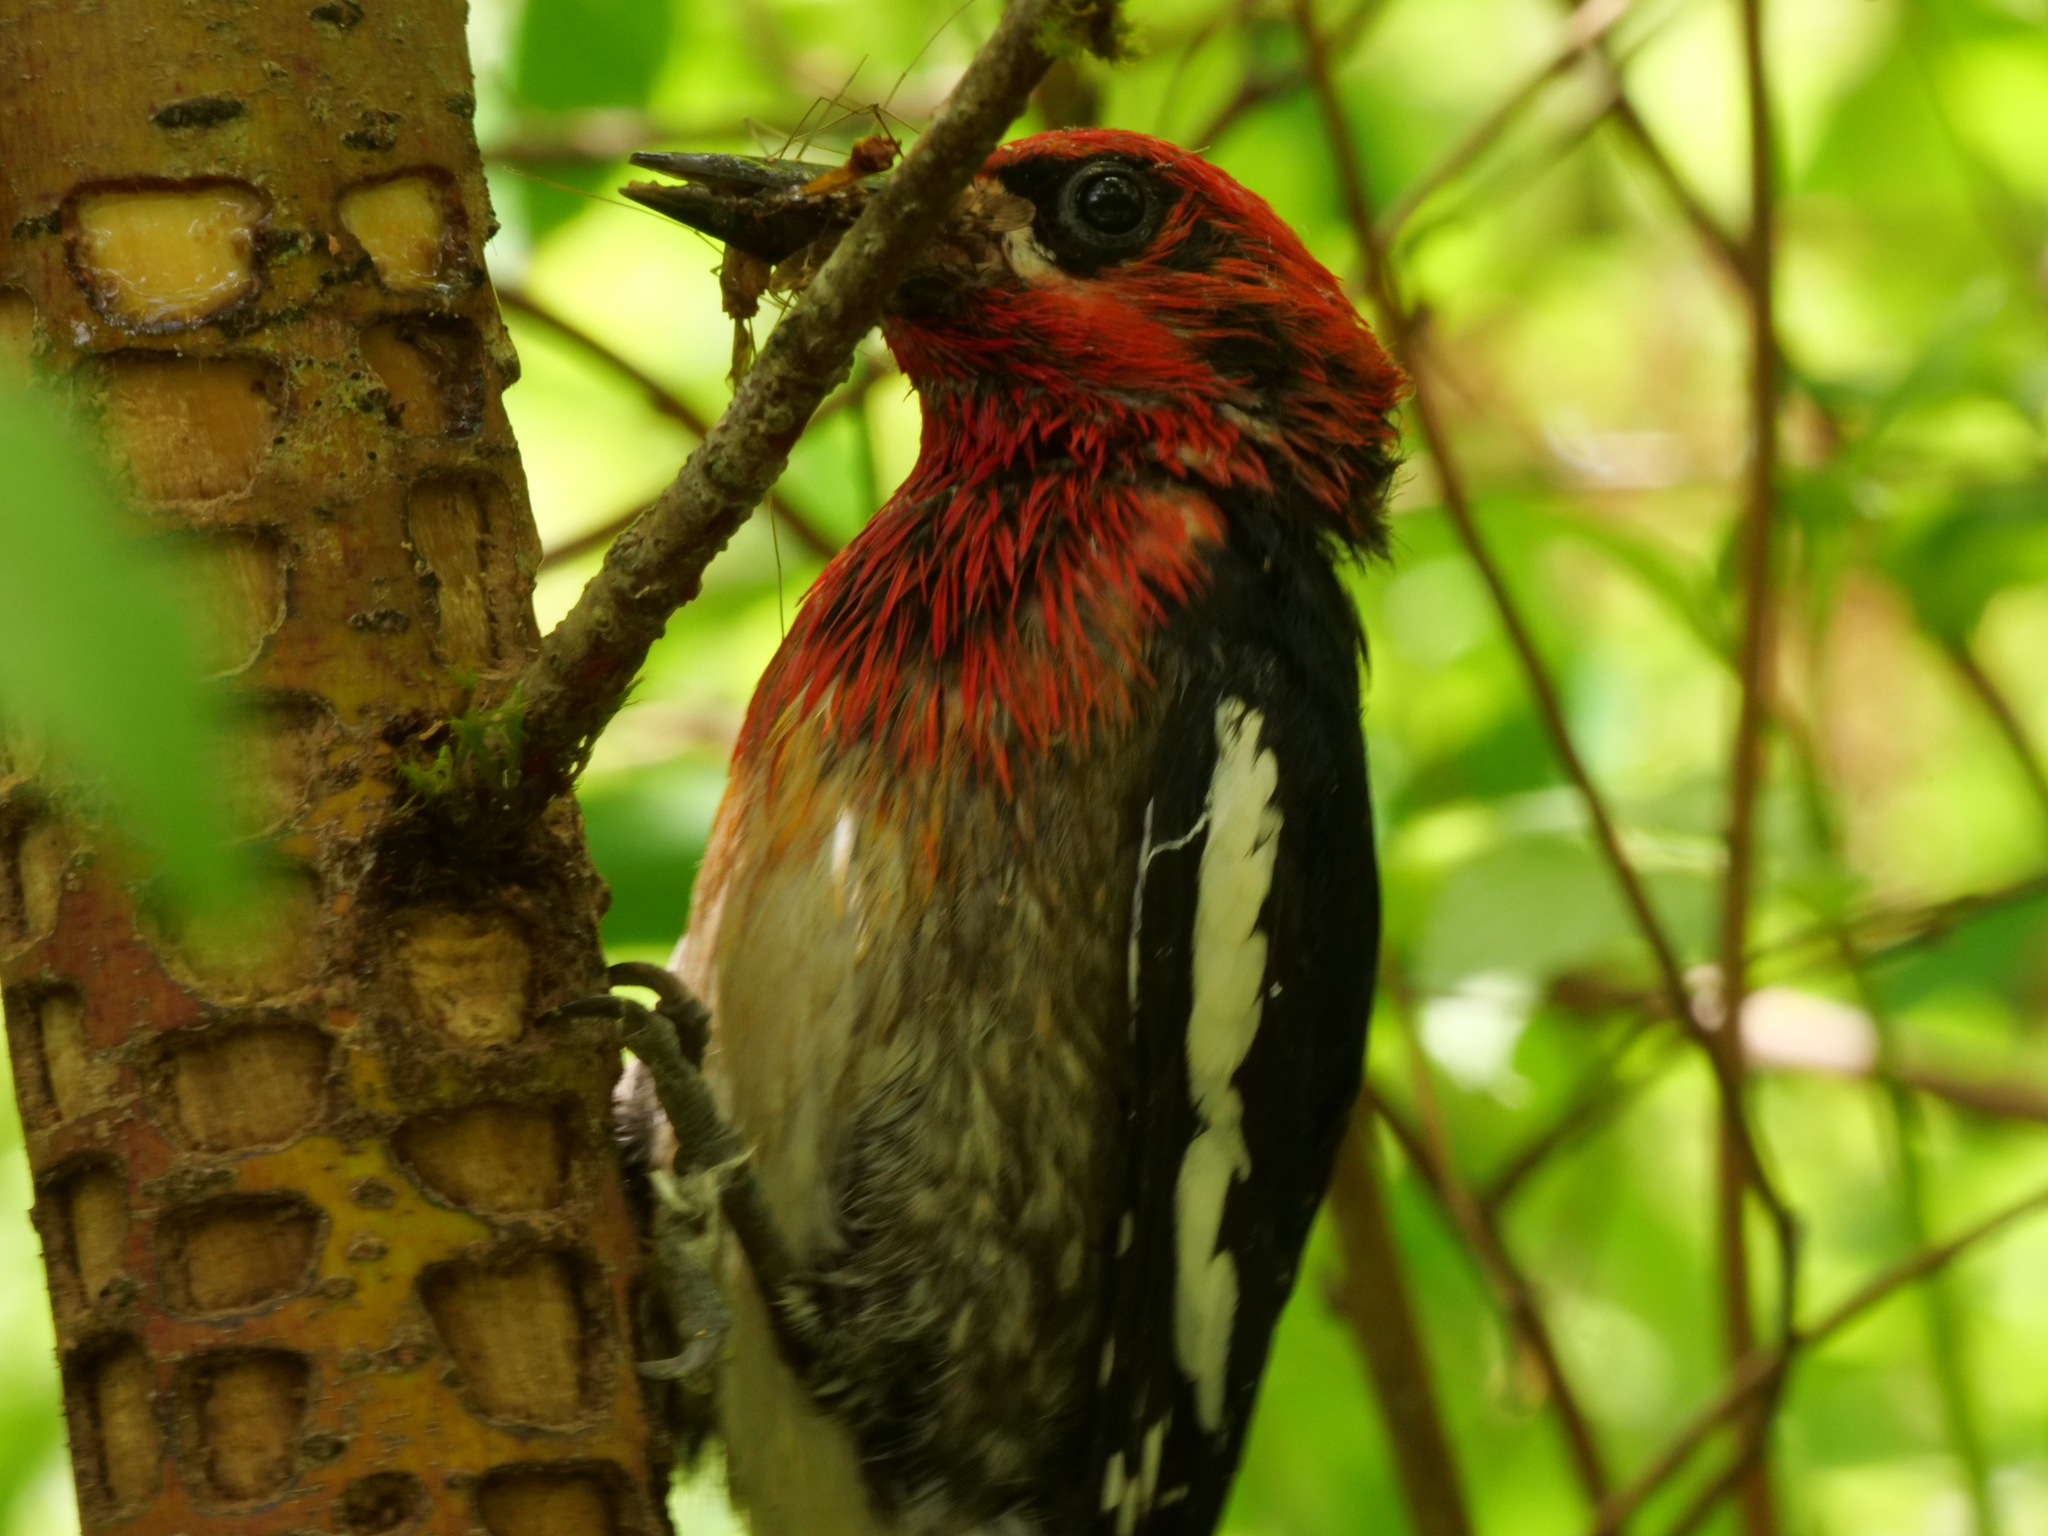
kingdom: Animalia
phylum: Chordata
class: Aves
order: Piciformes
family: Picidae
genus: Sphyrapicus
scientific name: Sphyrapicus ruber
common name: Red-breasted sapsucker
